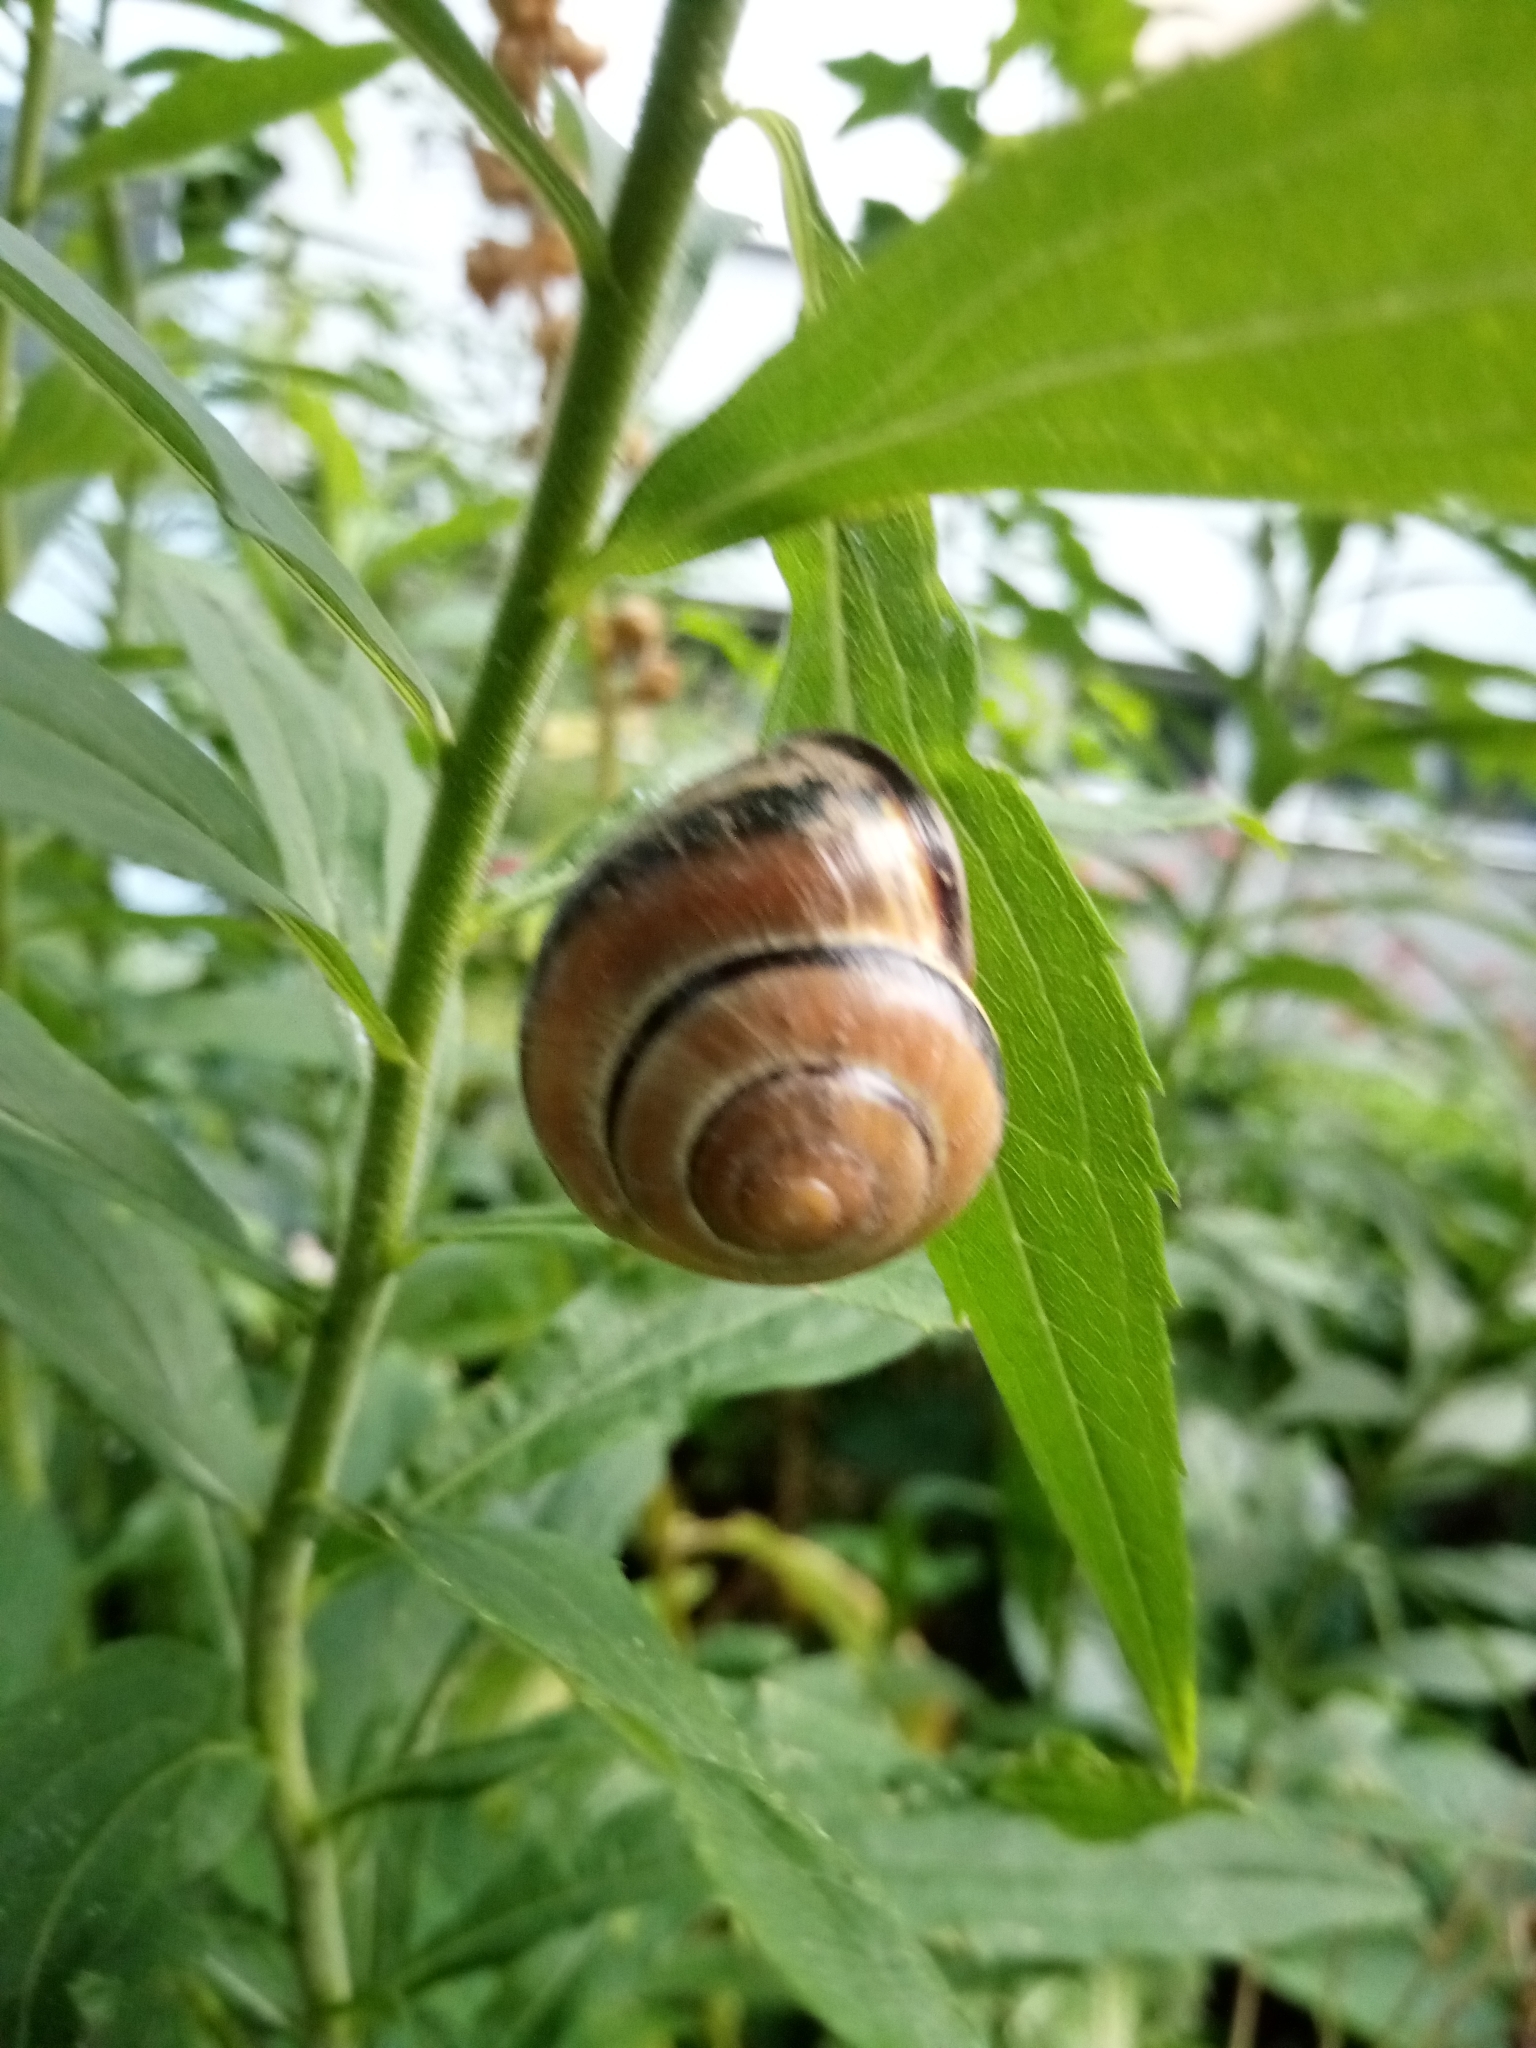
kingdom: Animalia
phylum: Mollusca
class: Gastropoda
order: Stylommatophora
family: Helicidae
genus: Cepaea
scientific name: Cepaea nemoralis
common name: Grovesnail
